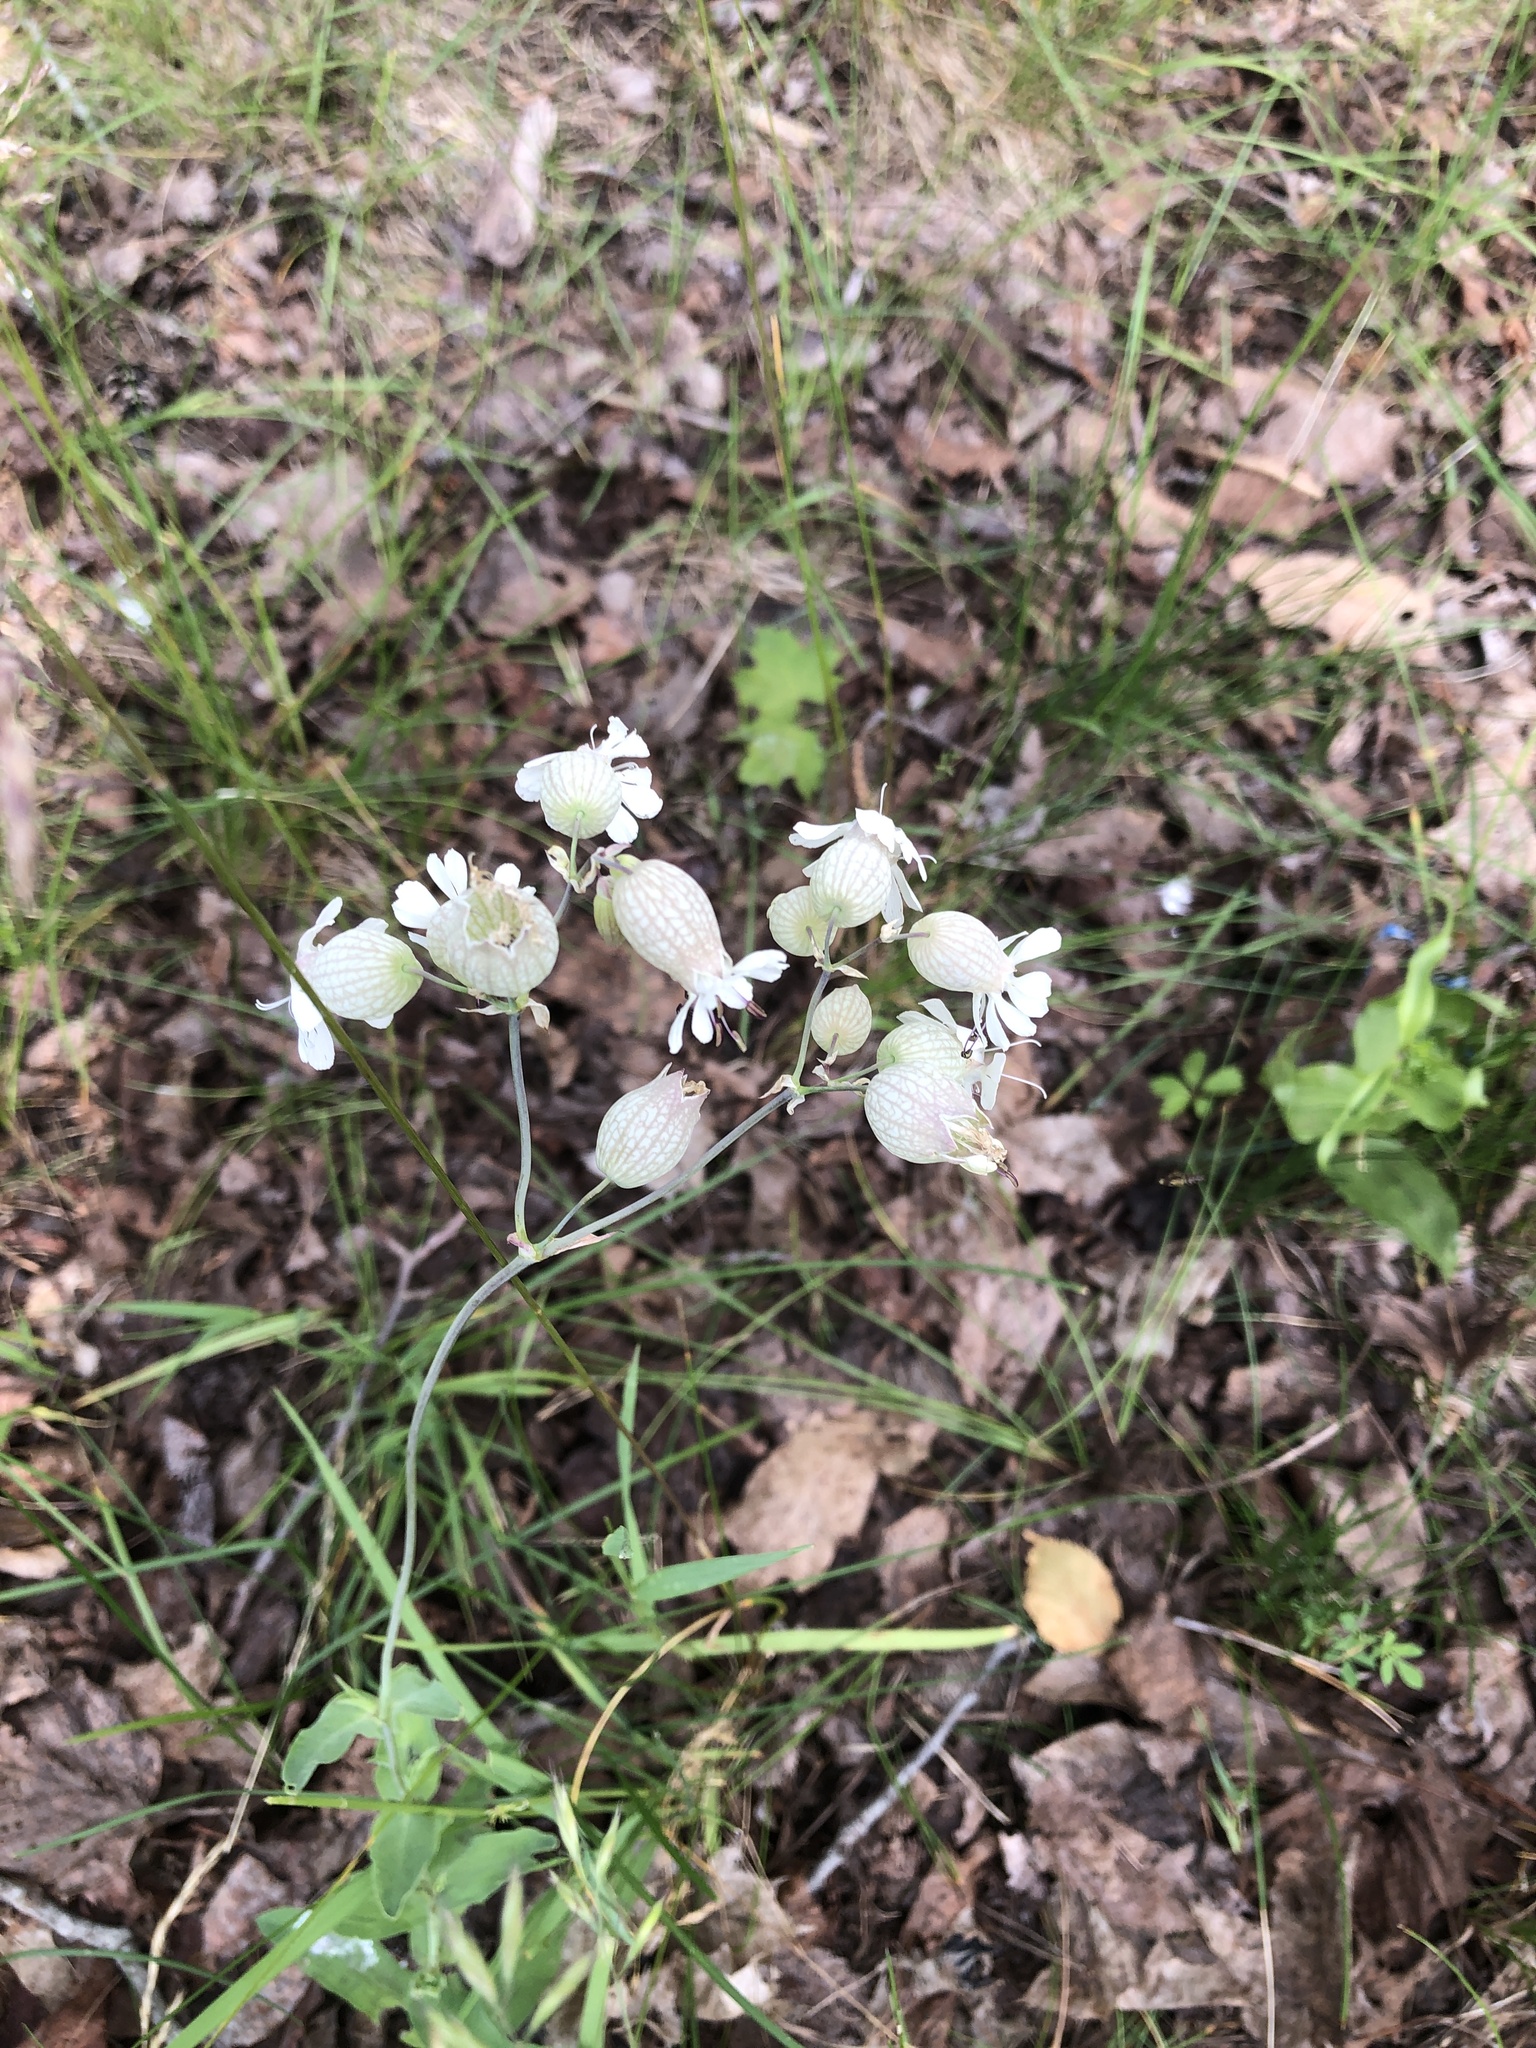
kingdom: Plantae
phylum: Tracheophyta
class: Magnoliopsida
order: Caryophyllales
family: Caryophyllaceae
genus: Silene
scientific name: Silene vulgaris
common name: Bladder campion
